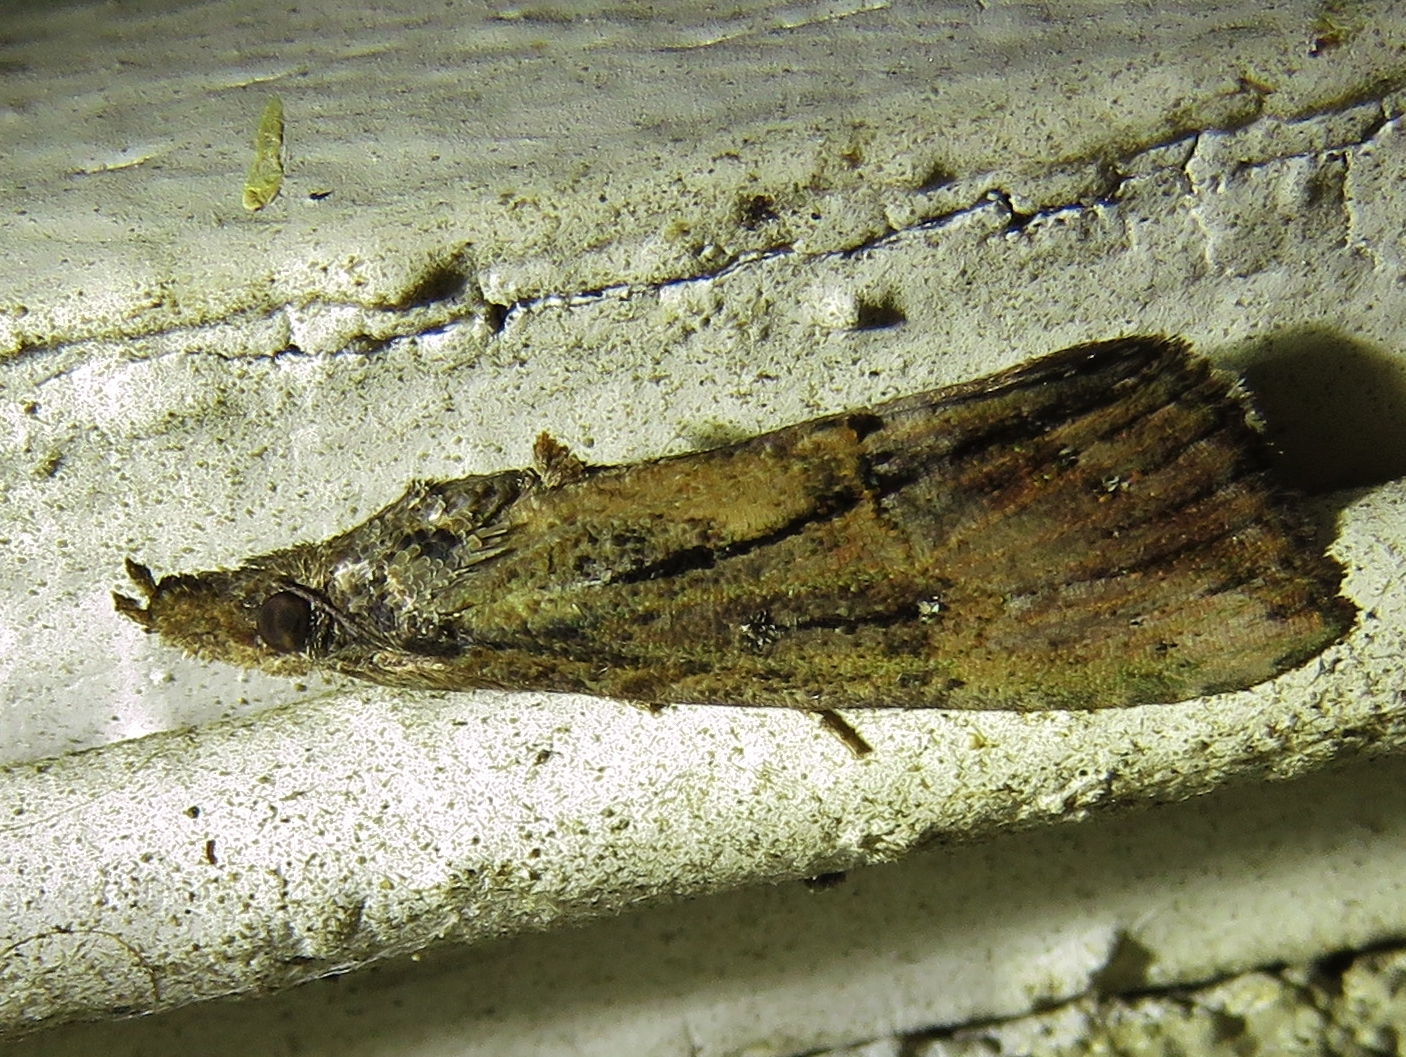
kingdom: Animalia
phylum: Arthropoda
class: Insecta
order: Lepidoptera
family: Erebidae
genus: Hypena
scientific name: Hypena scabra
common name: Green cloverworm
